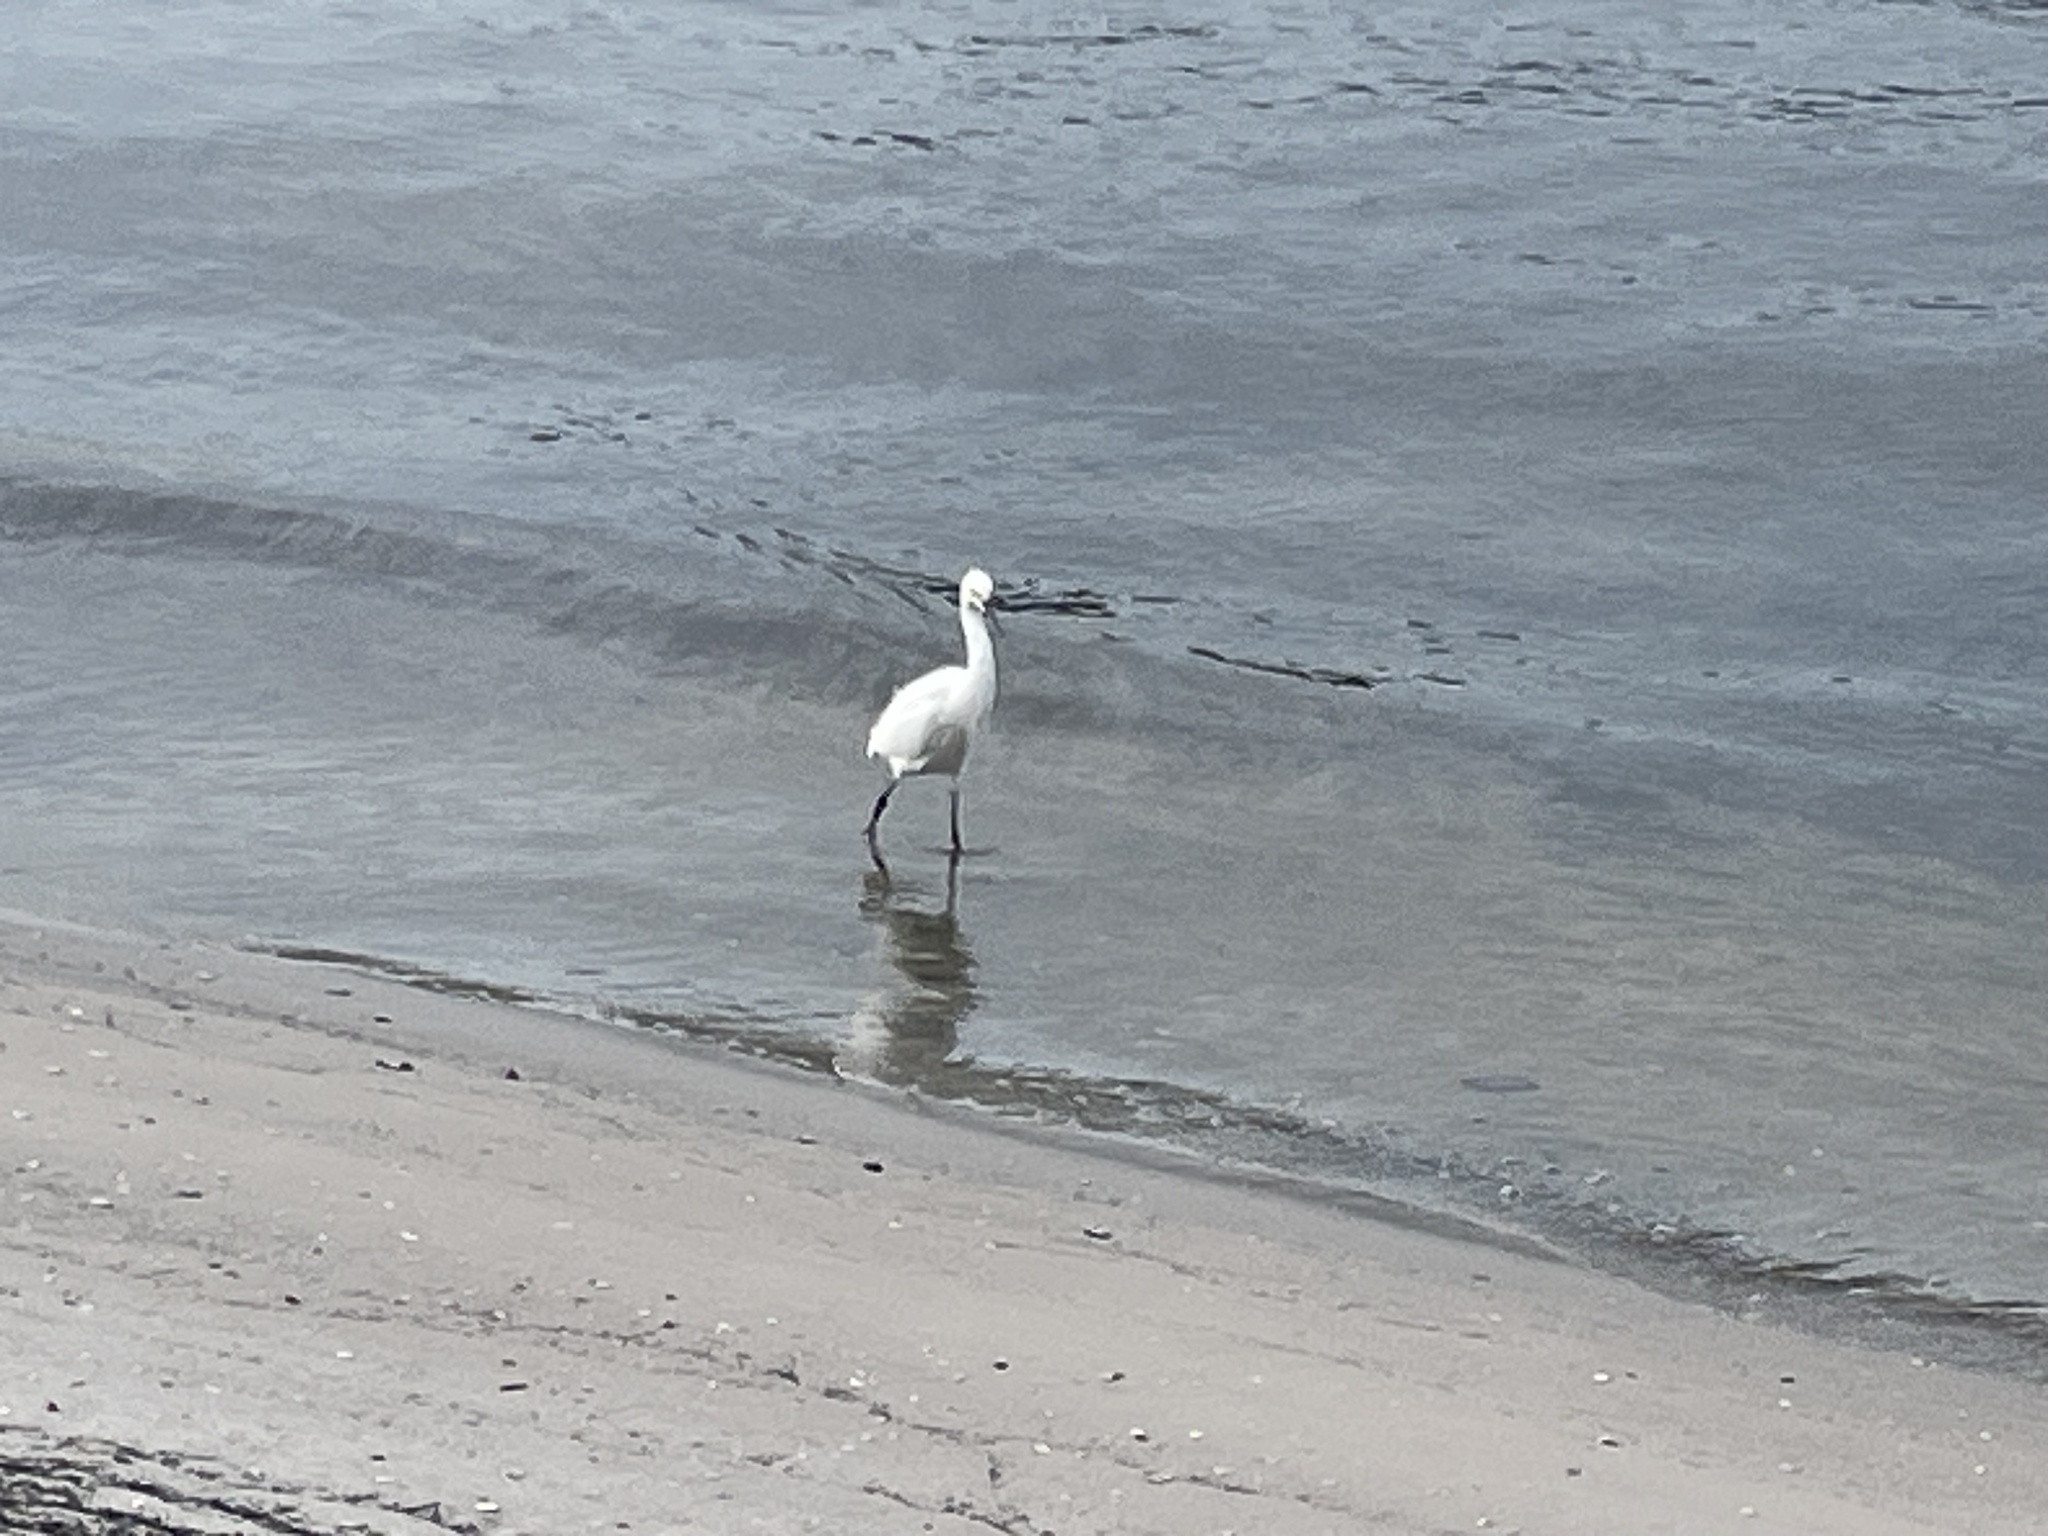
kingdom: Animalia
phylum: Chordata
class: Aves
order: Pelecaniformes
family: Ardeidae
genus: Egretta
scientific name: Egretta thula
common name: Snowy egret
